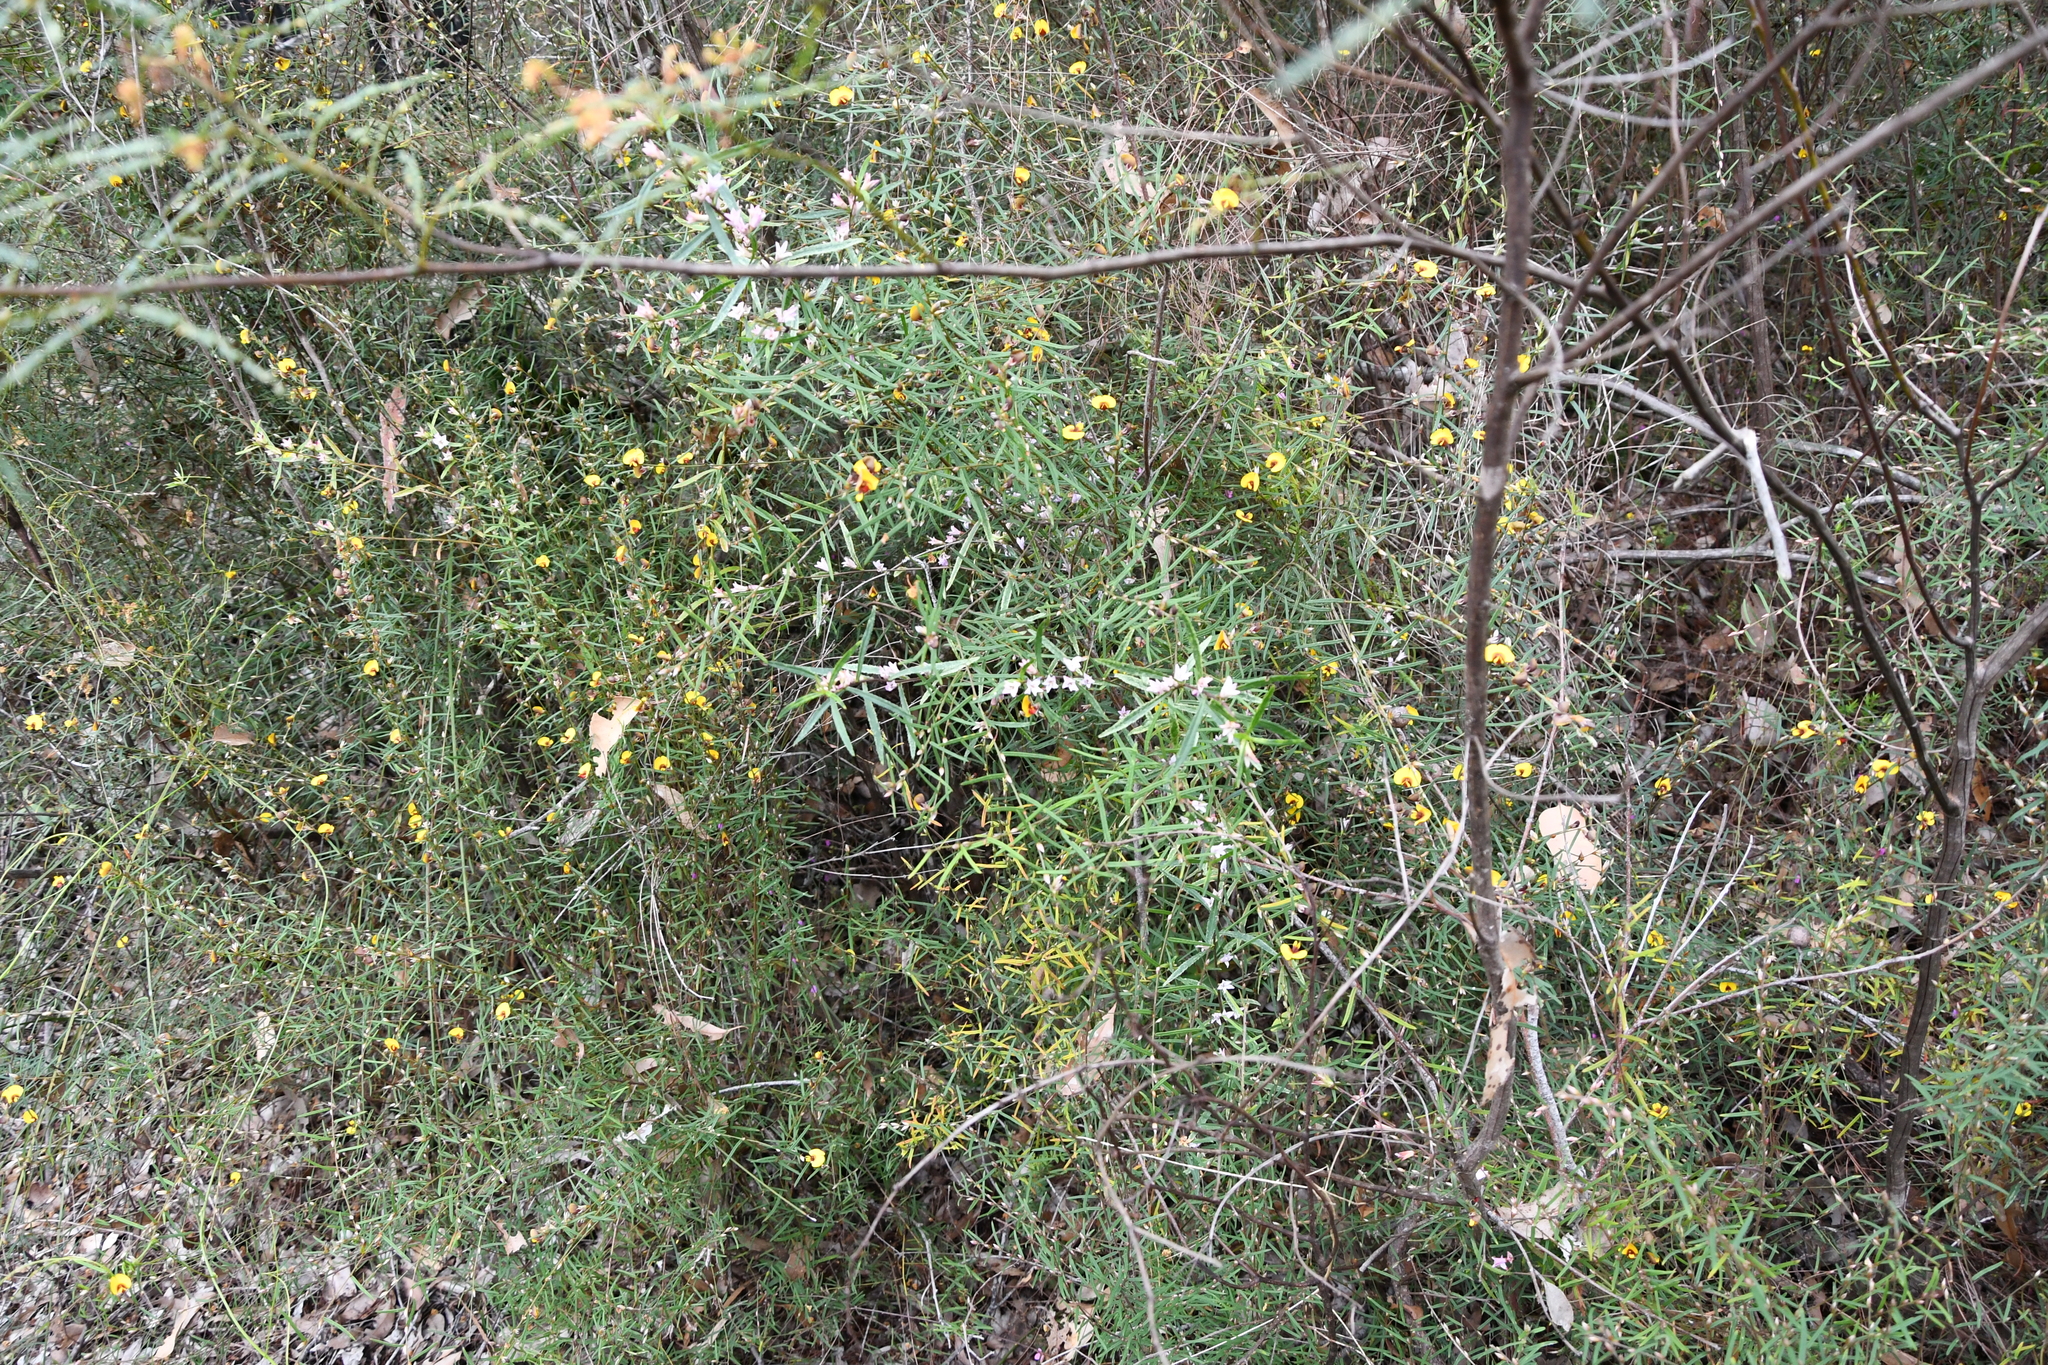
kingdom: Plantae
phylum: Tracheophyta
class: Magnoliopsida
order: Fabales
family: Fabaceae
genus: Bossiaea
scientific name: Bossiaea eriocarpa
